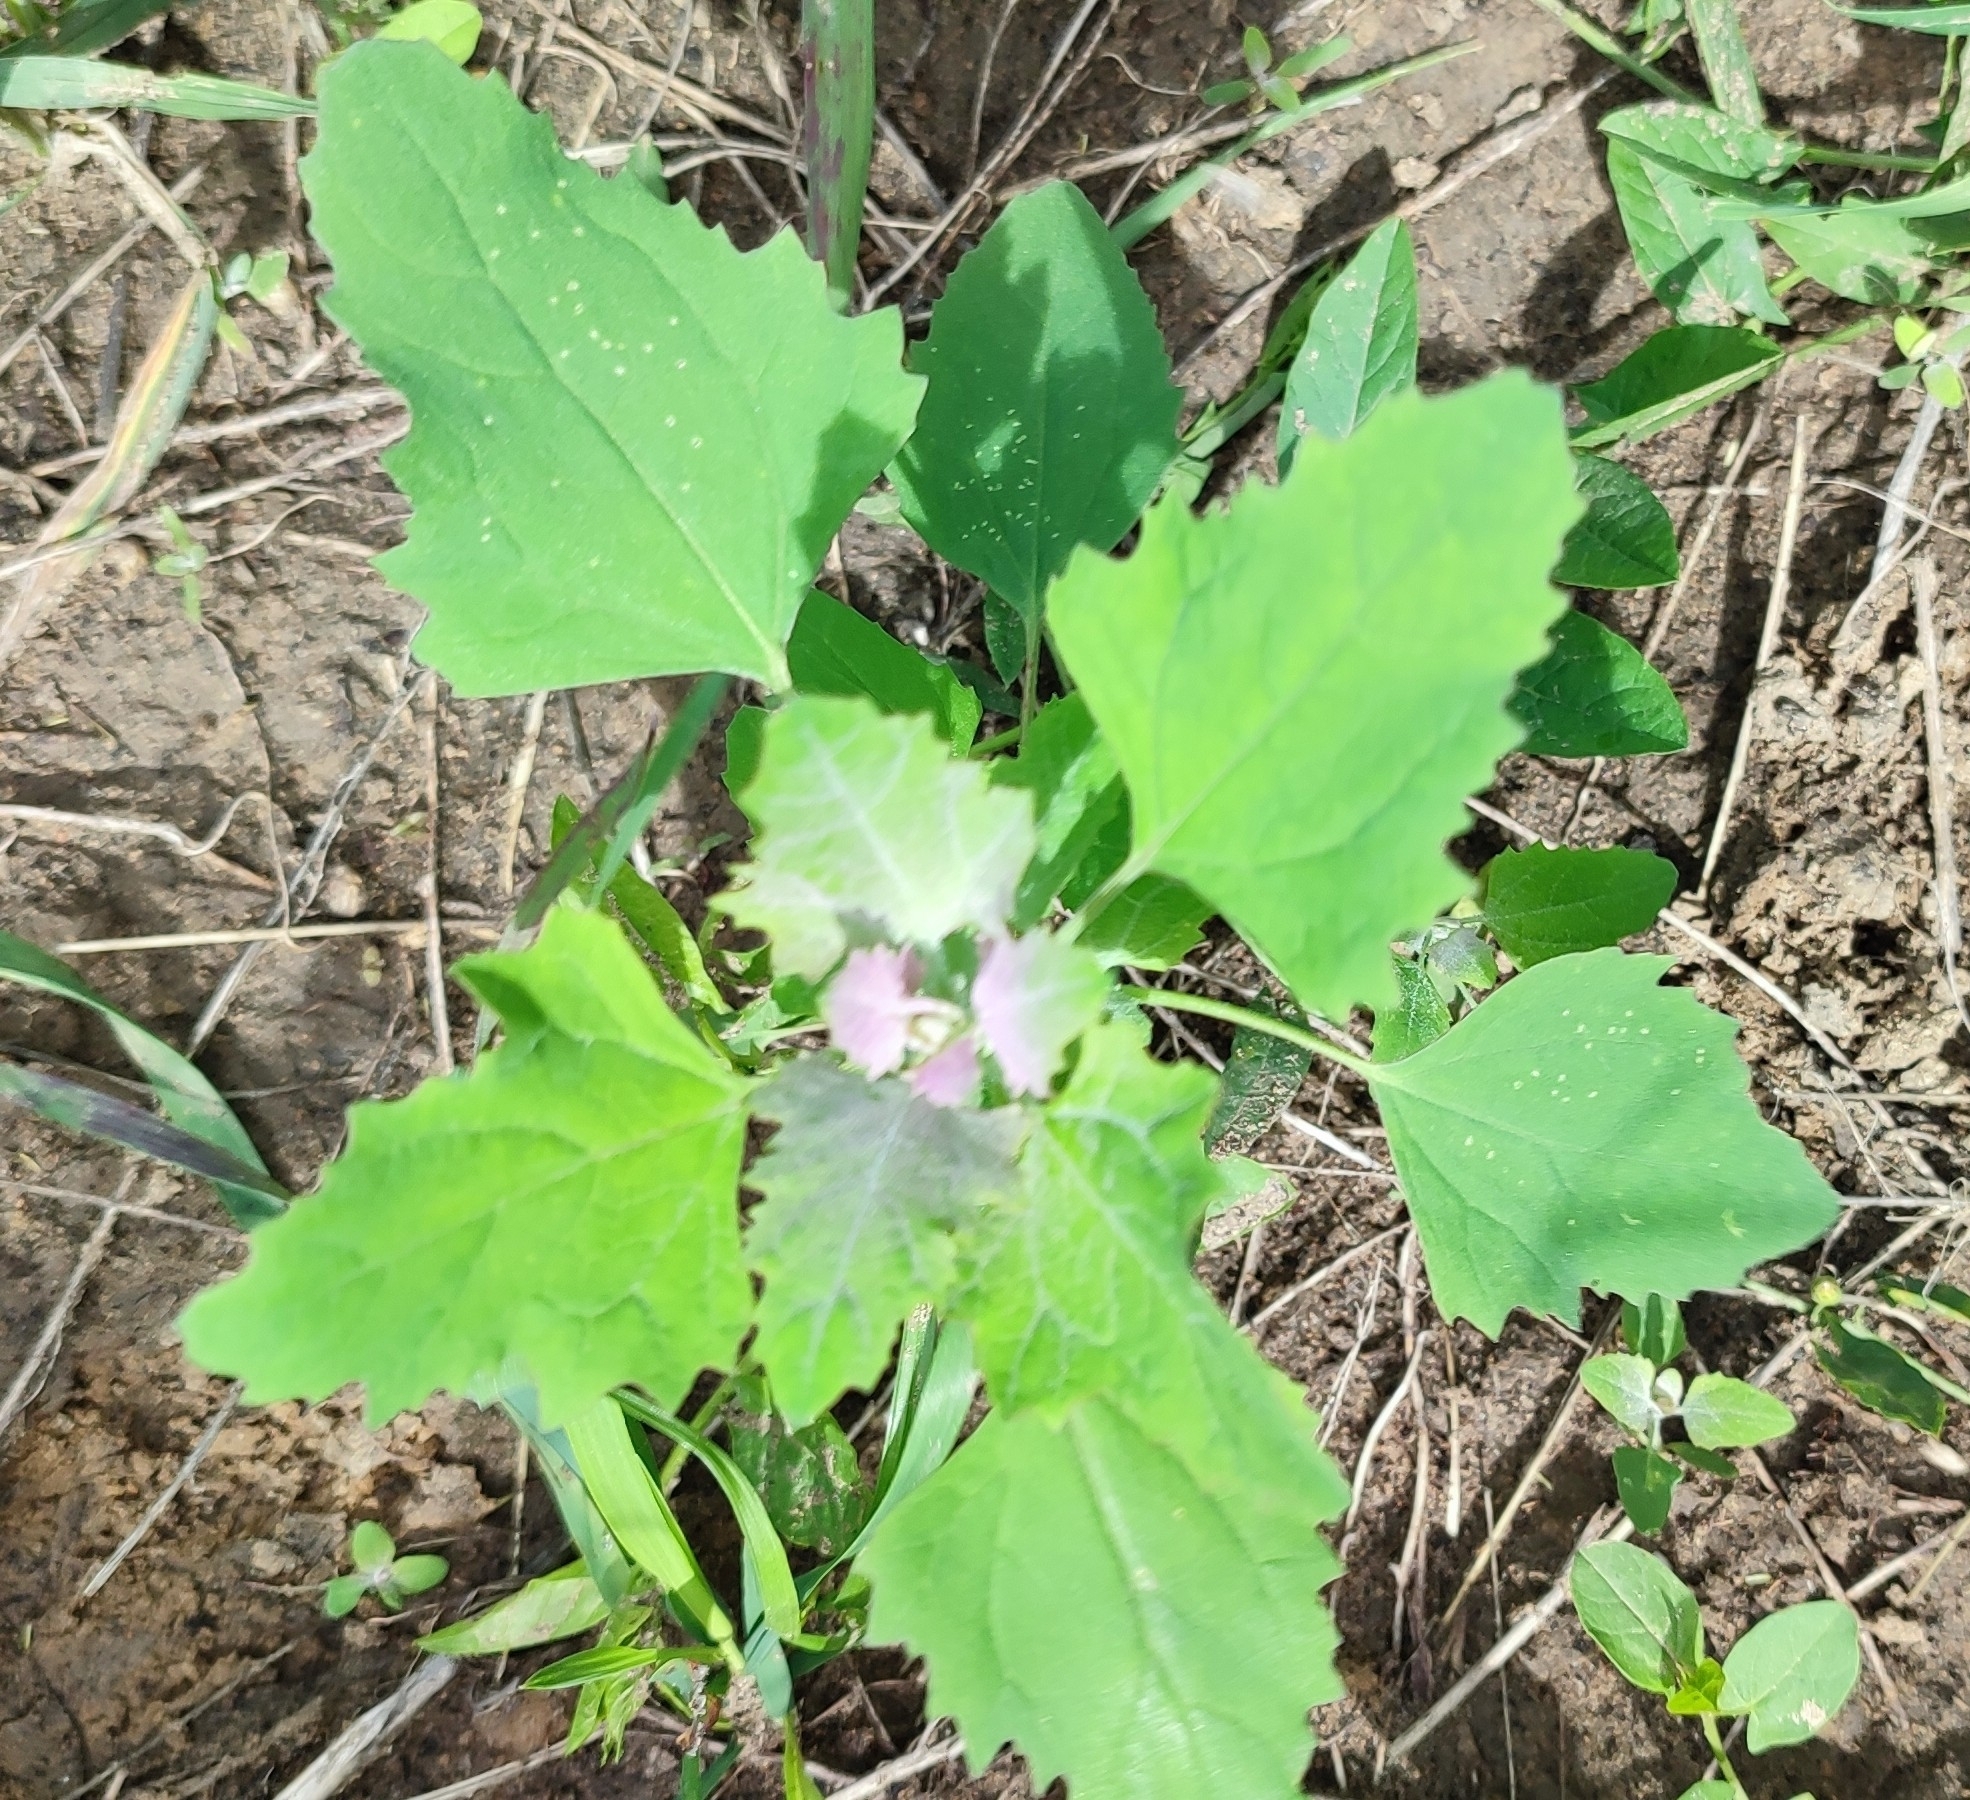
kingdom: Plantae
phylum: Tracheophyta
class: Magnoliopsida
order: Caryophyllales
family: Amaranthaceae
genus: Chenopodium
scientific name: Chenopodium album
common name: Fat-hen
